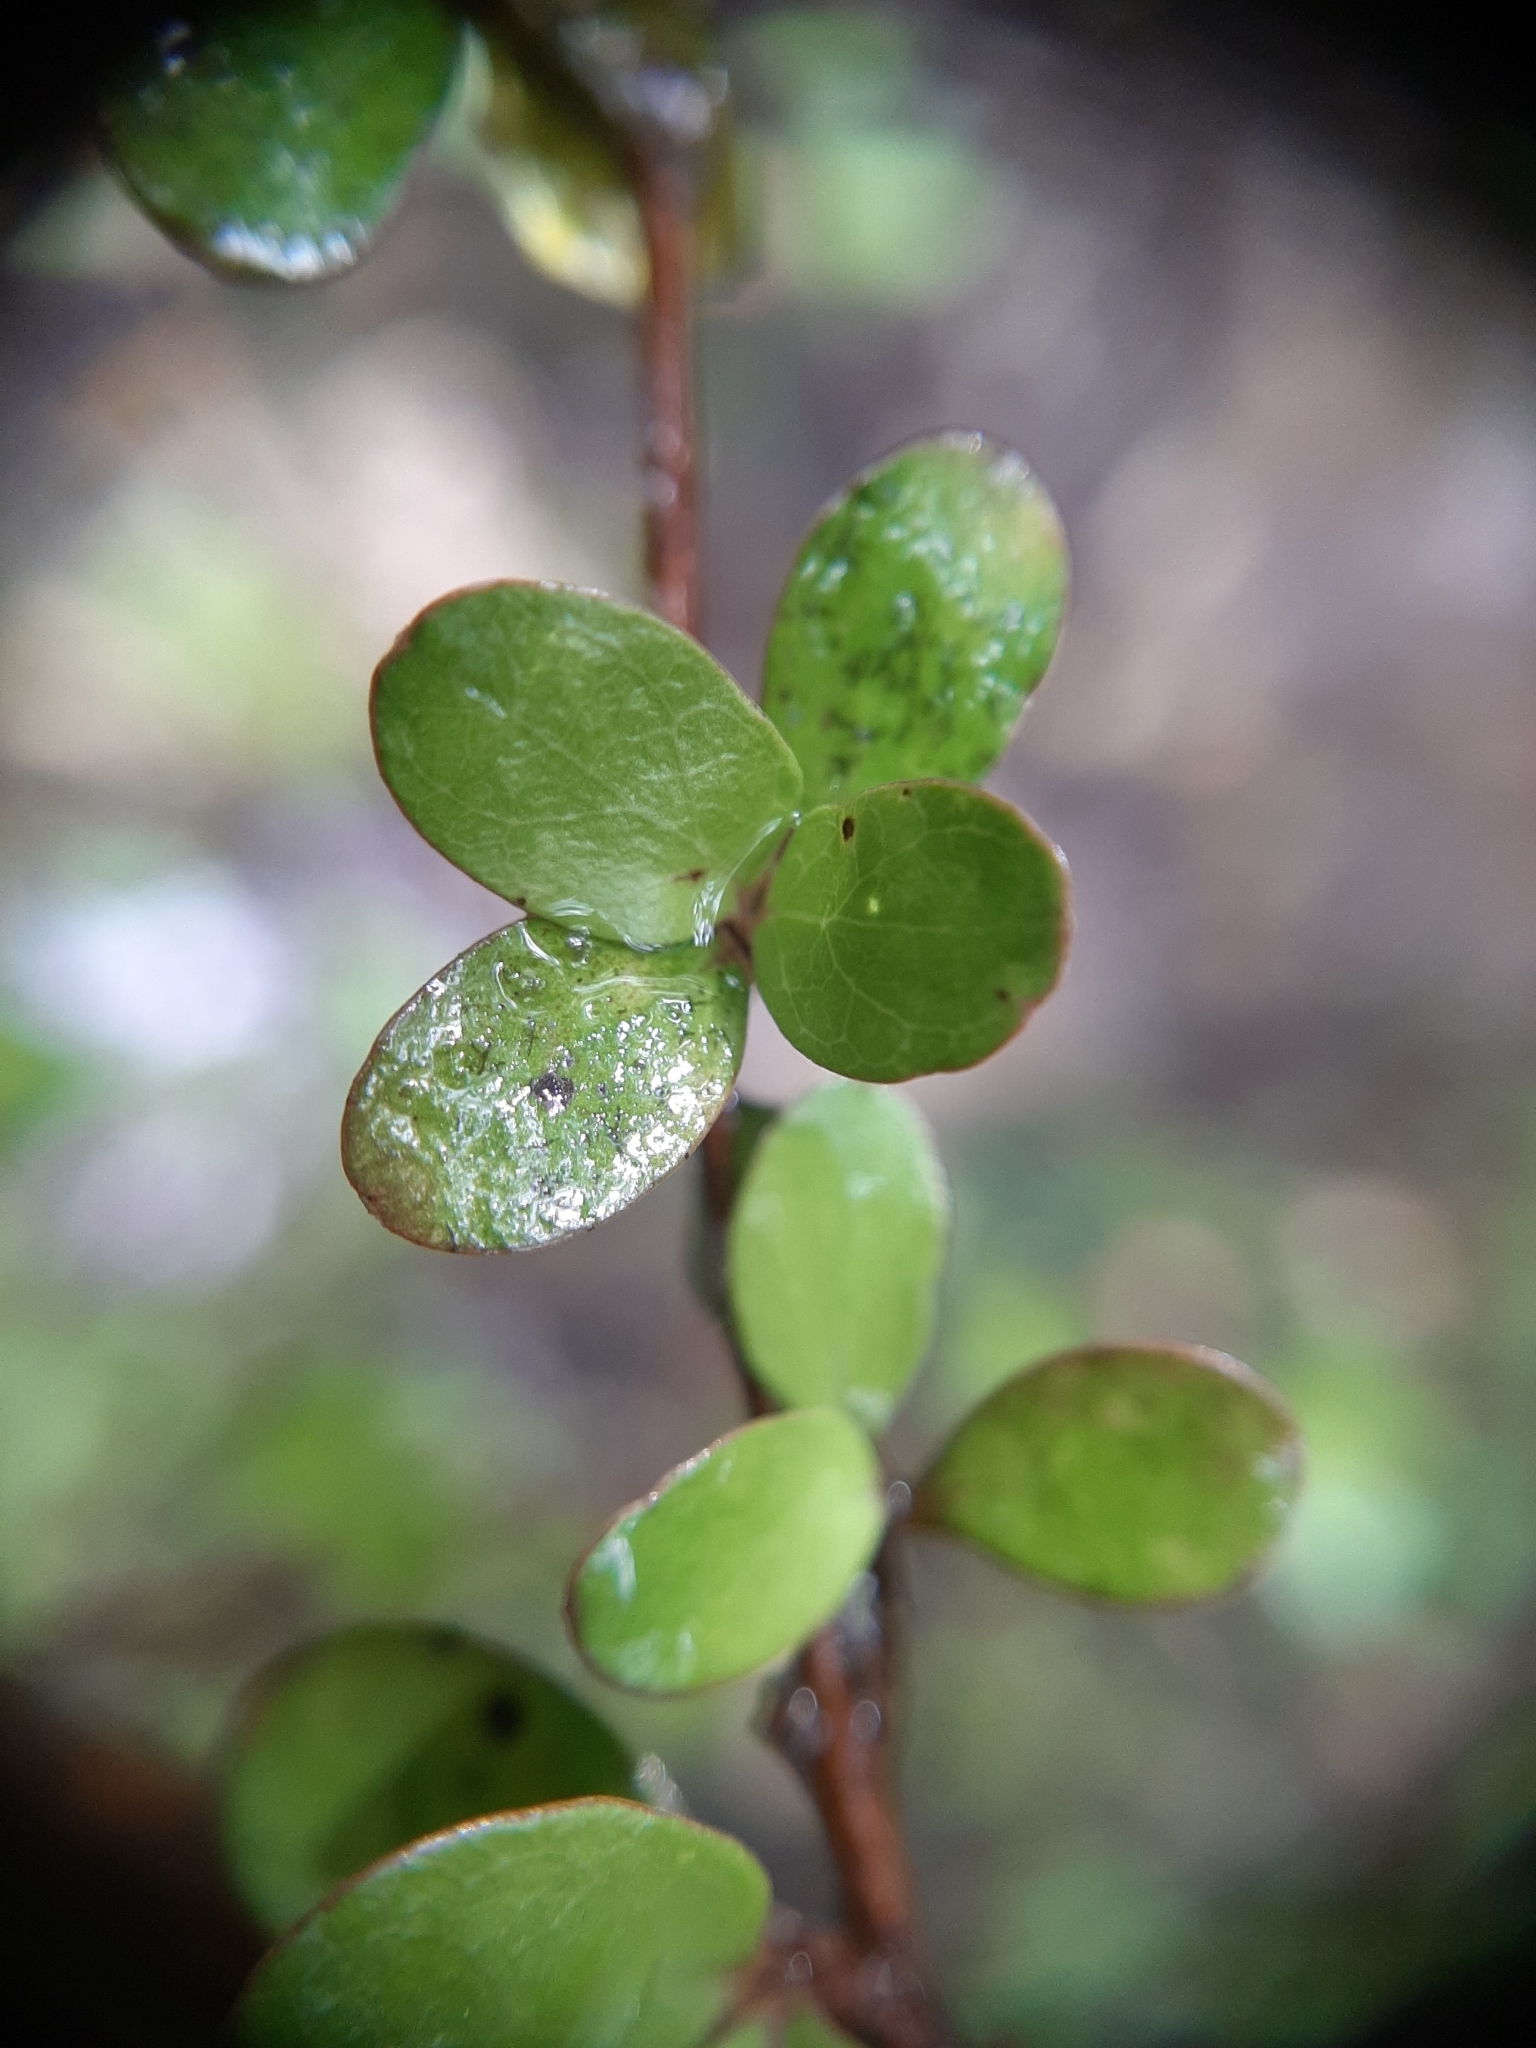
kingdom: Plantae
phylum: Tracheophyta
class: Magnoliopsida
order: Gentianales
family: Rubiaceae
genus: Coprosma
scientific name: Coprosma rigida
